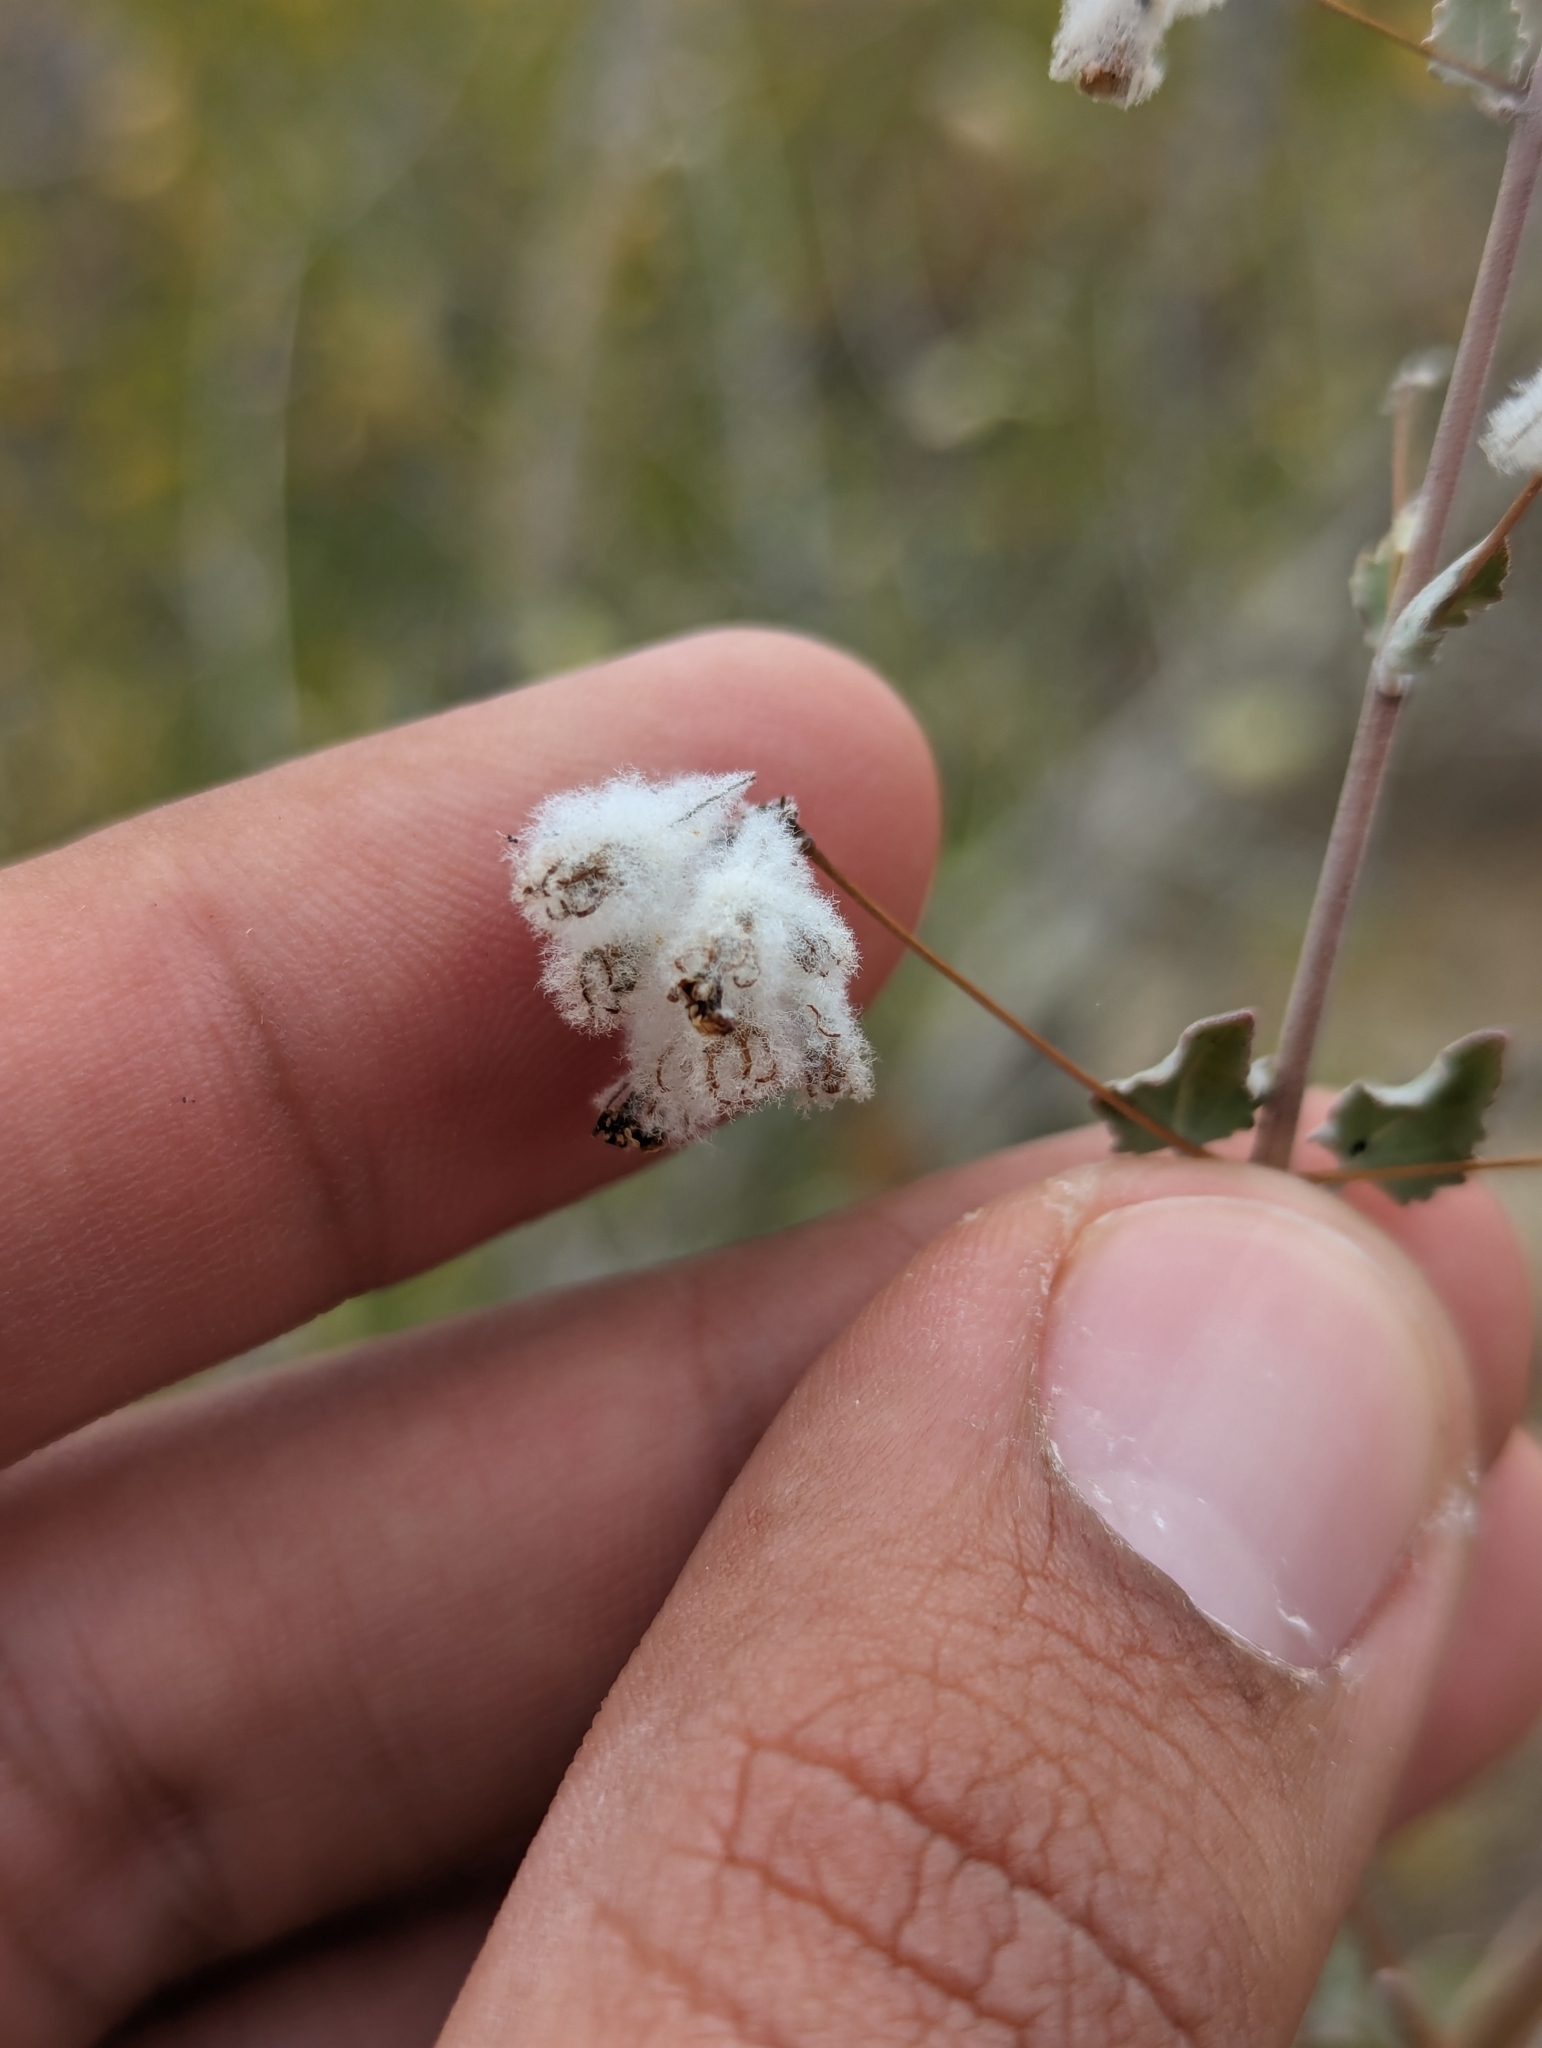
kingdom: Plantae
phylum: Tracheophyta
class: Magnoliopsida
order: Lamiales
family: Lamiaceae
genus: Condea
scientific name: Condea laniflora
